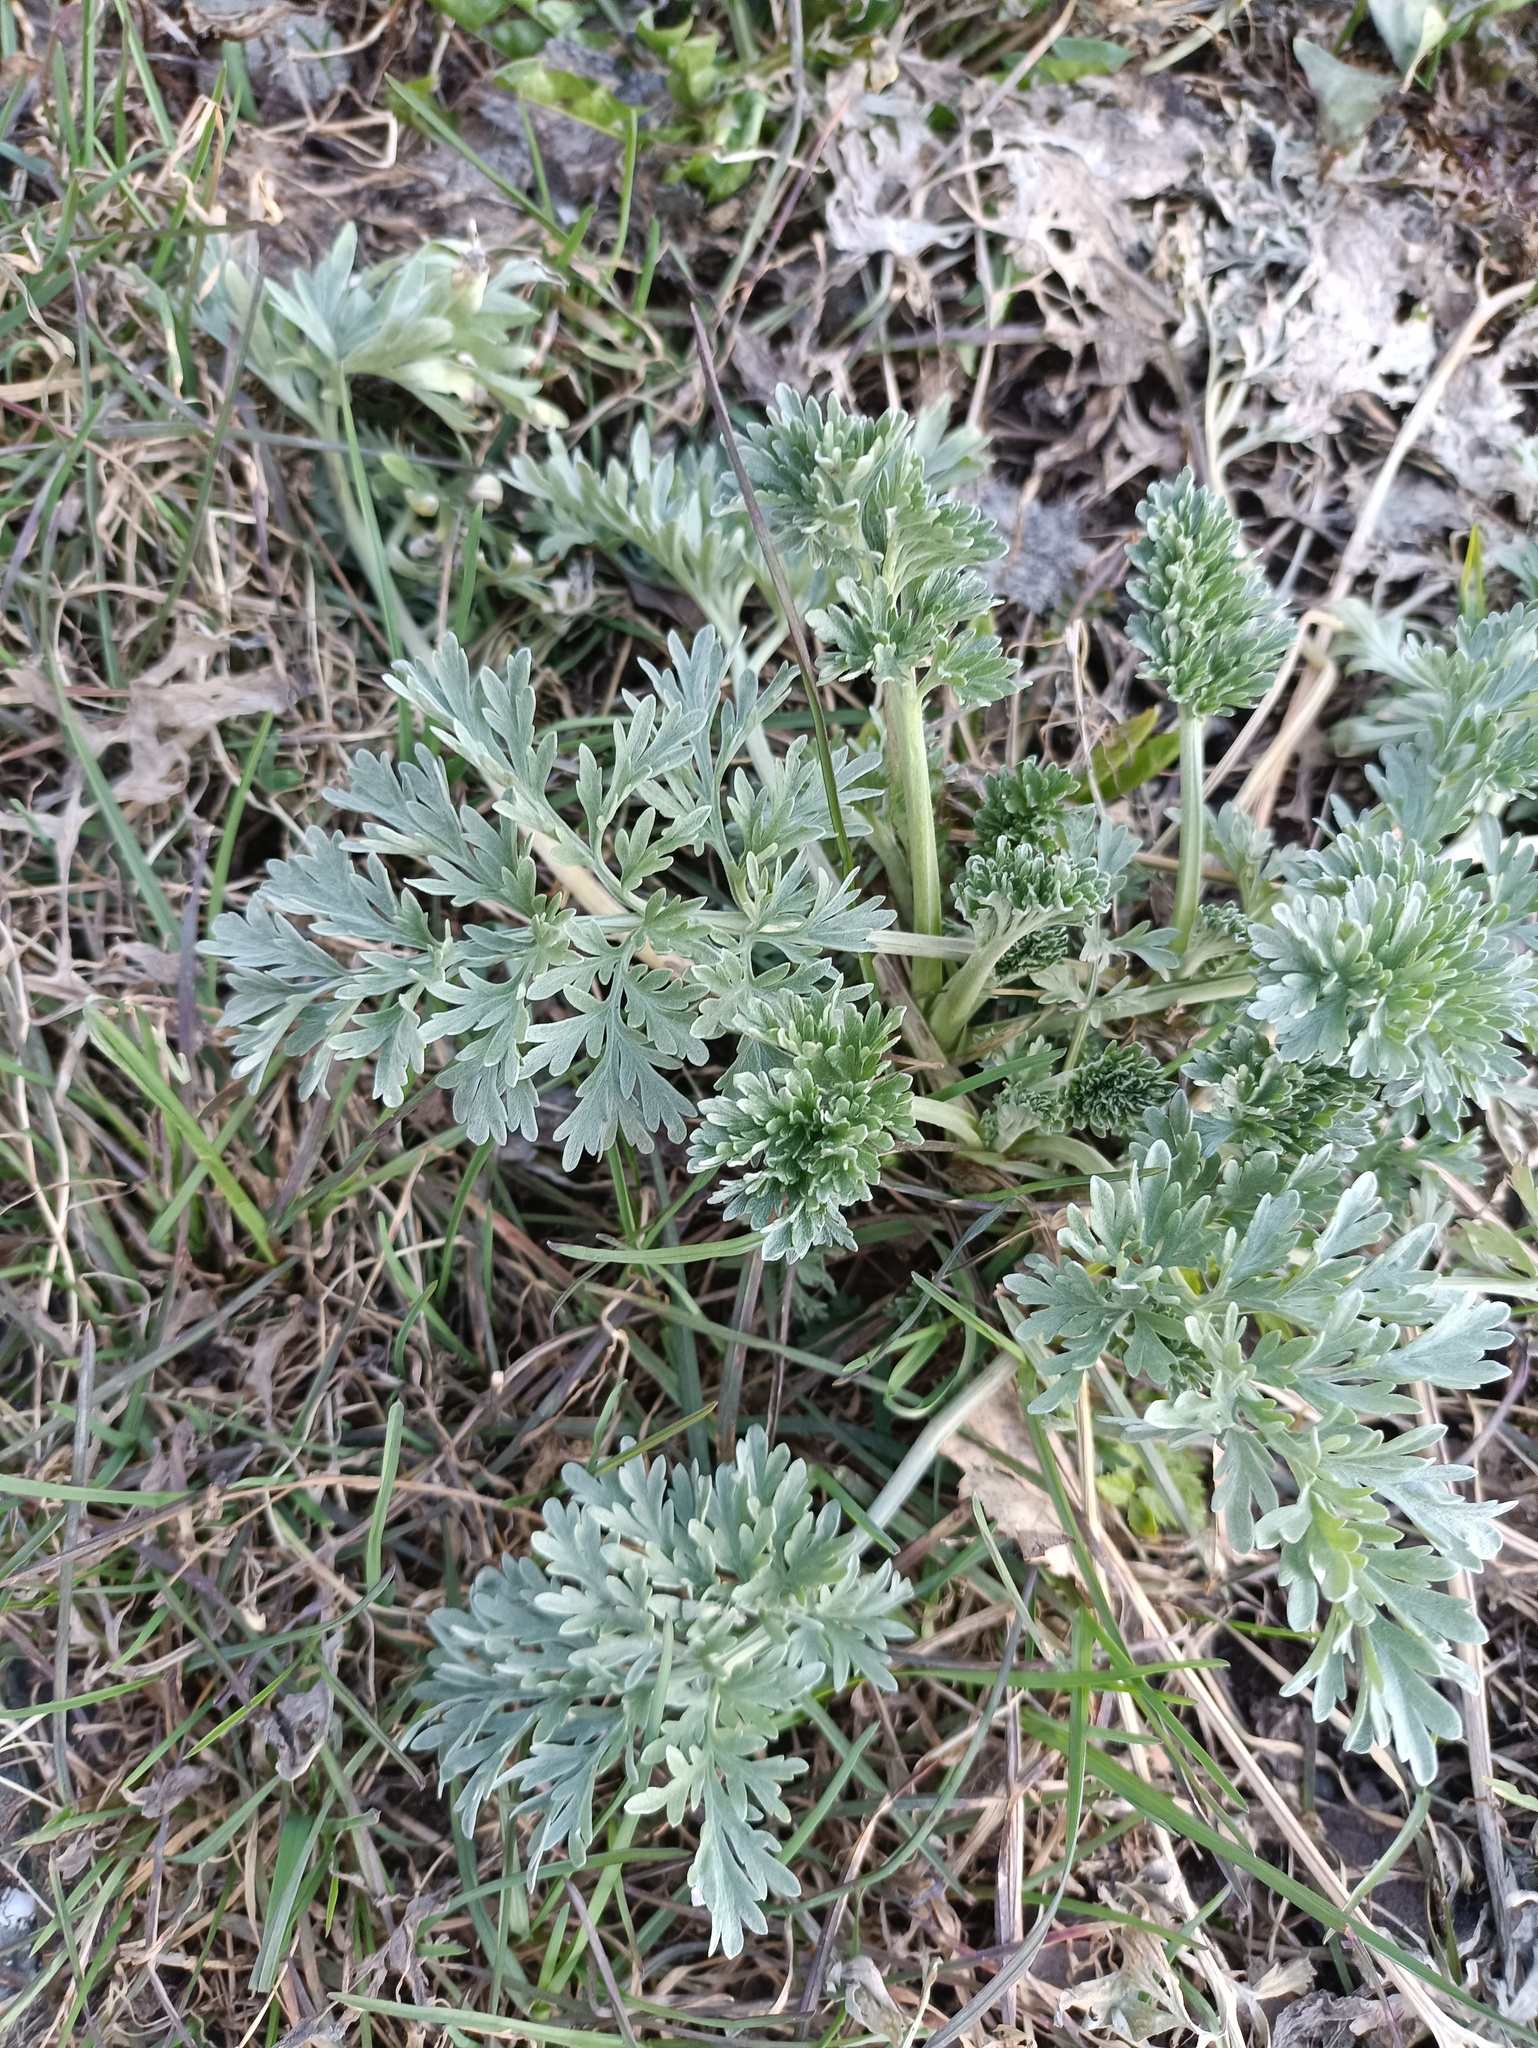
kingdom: Plantae
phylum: Tracheophyta
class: Magnoliopsida
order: Asterales
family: Asteraceae
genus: Artemisia
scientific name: Artemisia absinthium
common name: Wormwood
